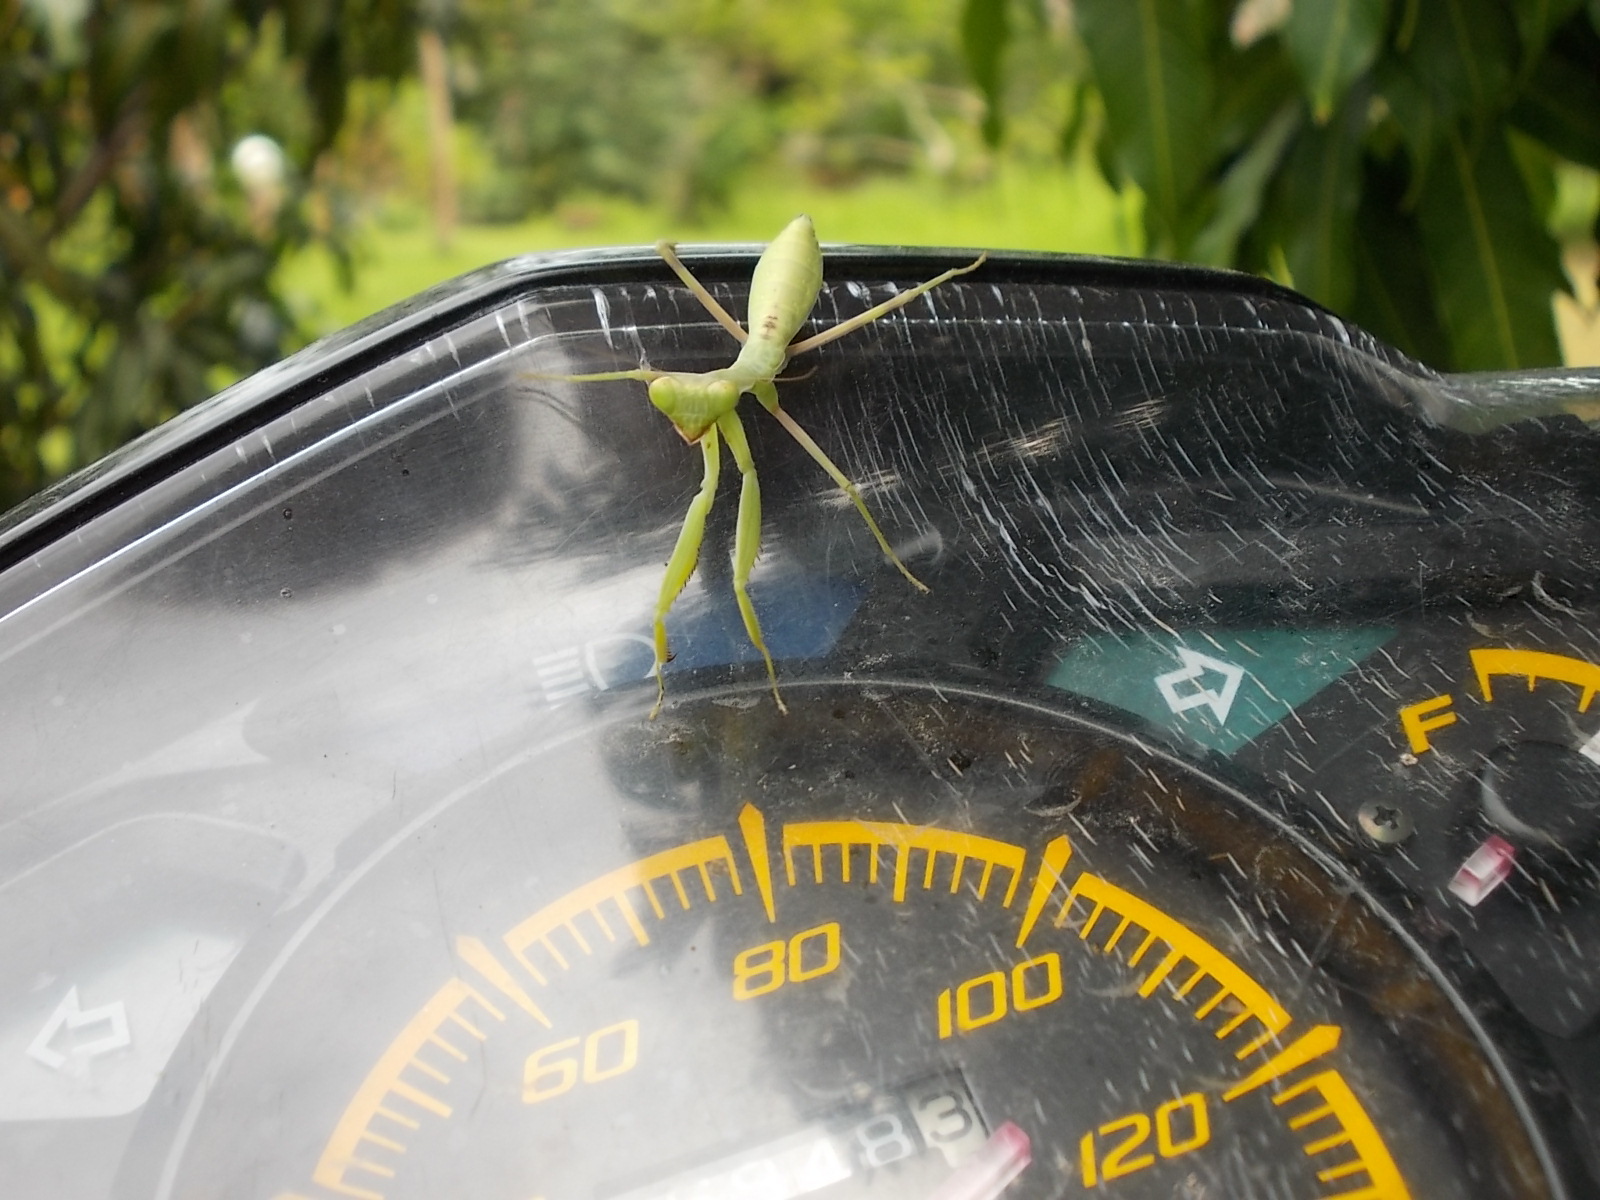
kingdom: Animalia
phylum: Arthropoda
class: Insecta
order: Mantodea
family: Mantidae
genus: Hierodula
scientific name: Hierodula patellifera
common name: Asian mantis
